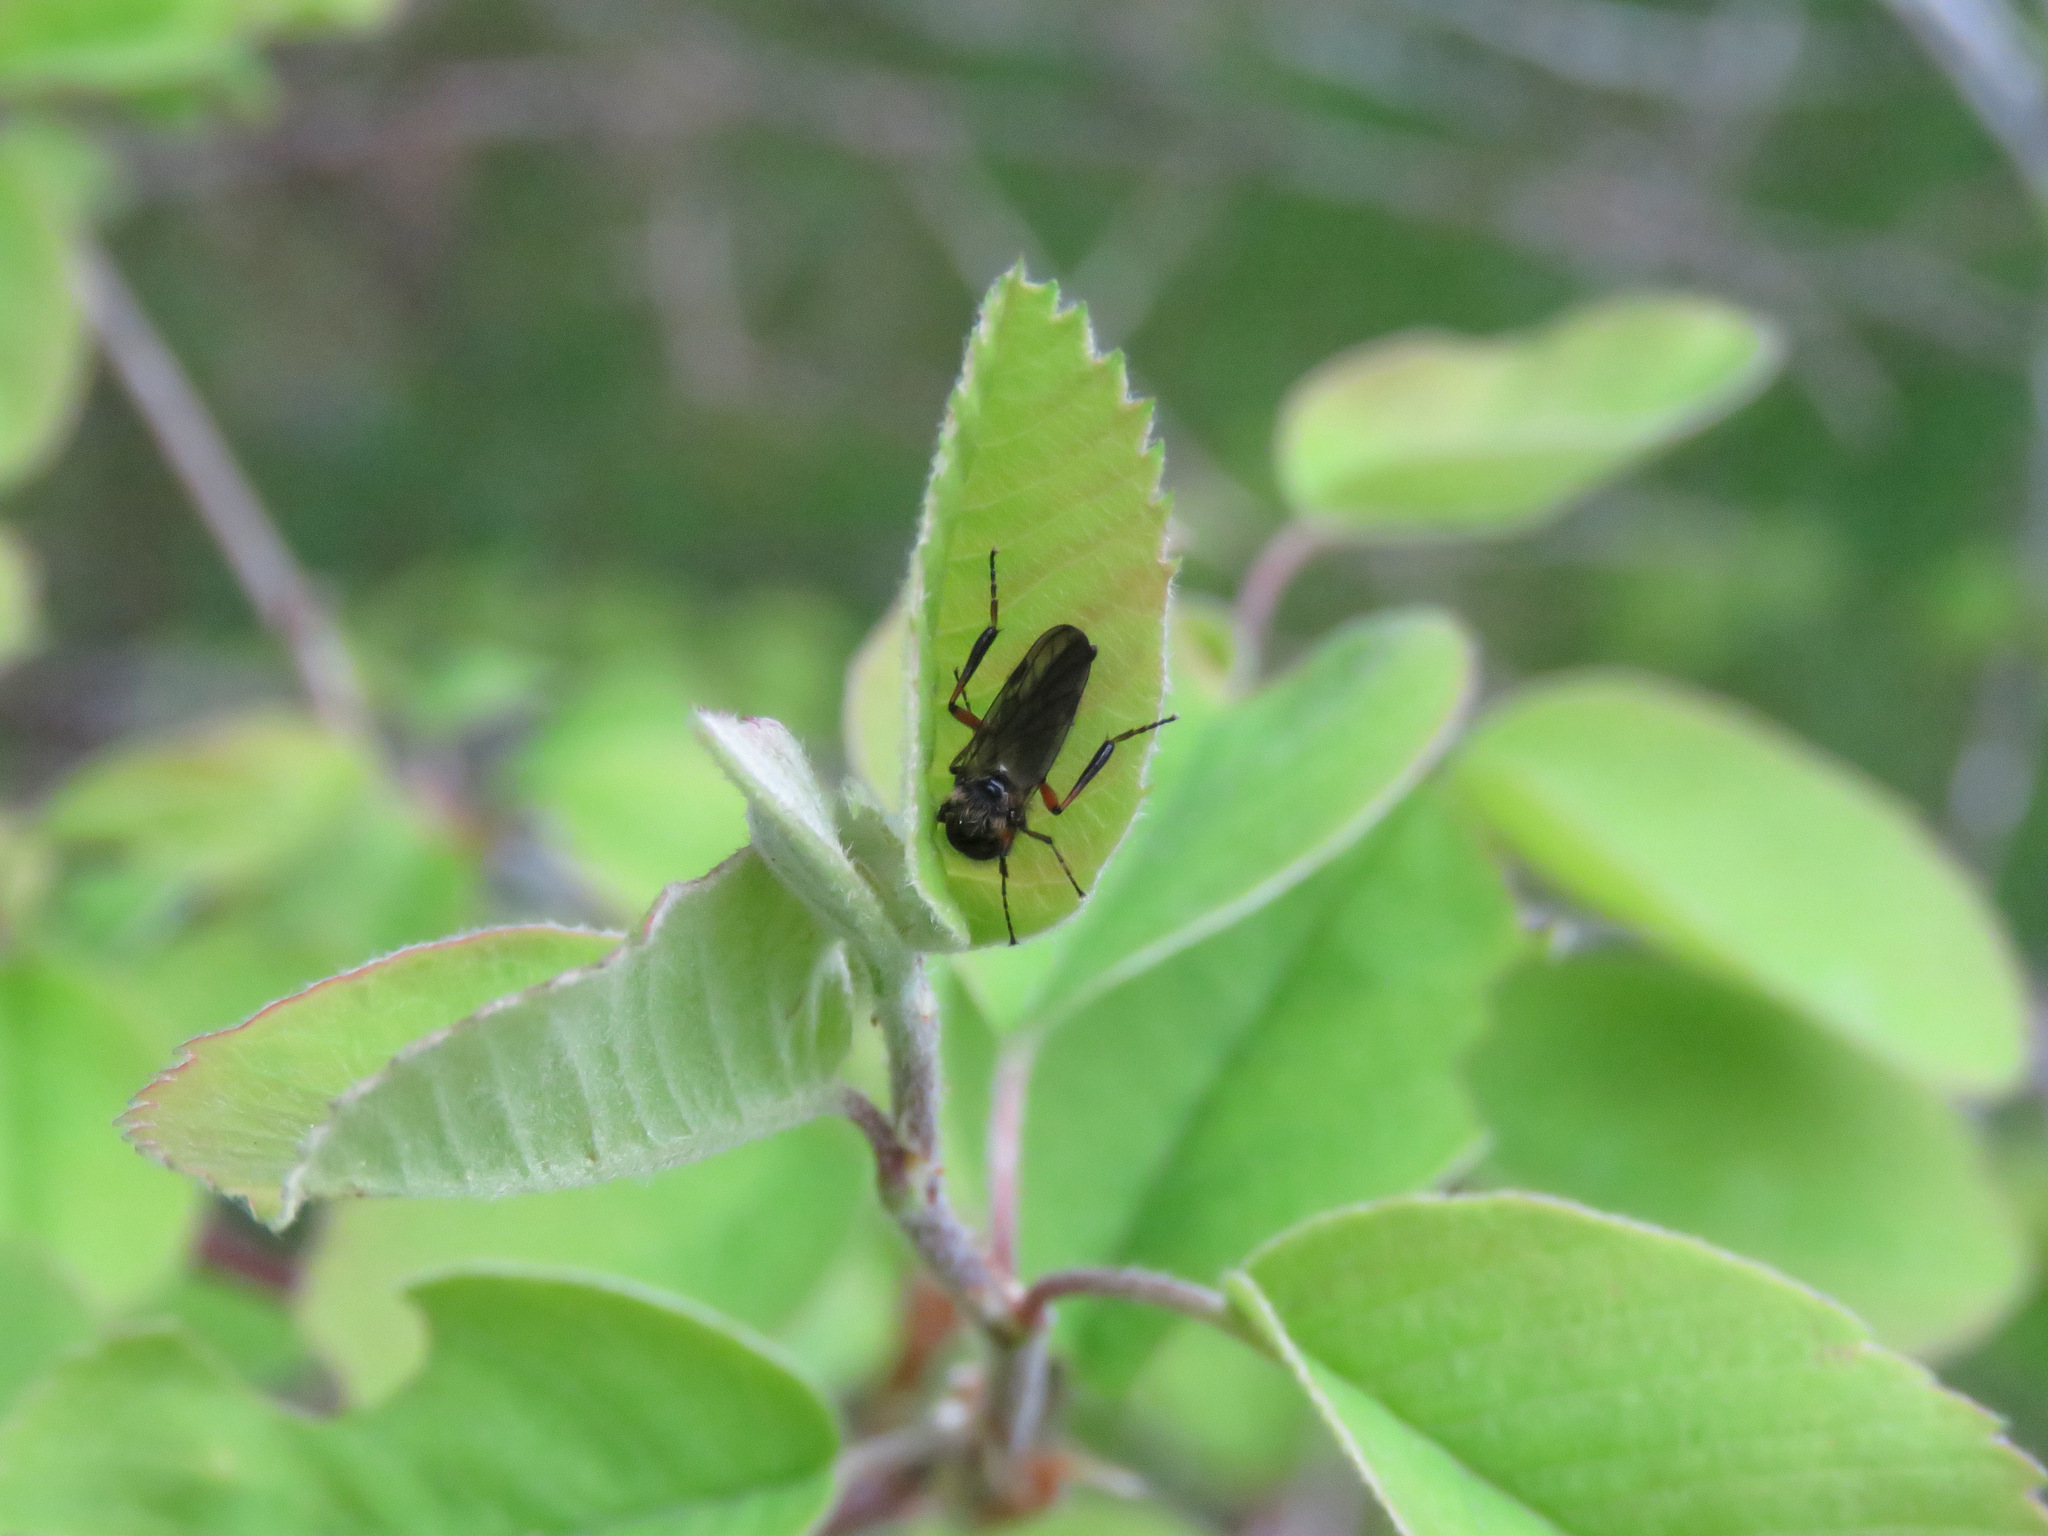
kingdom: Animalia
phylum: Arthropoda
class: Insecta
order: Diptera
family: Bibionidae
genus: Bibio
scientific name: Bibio
